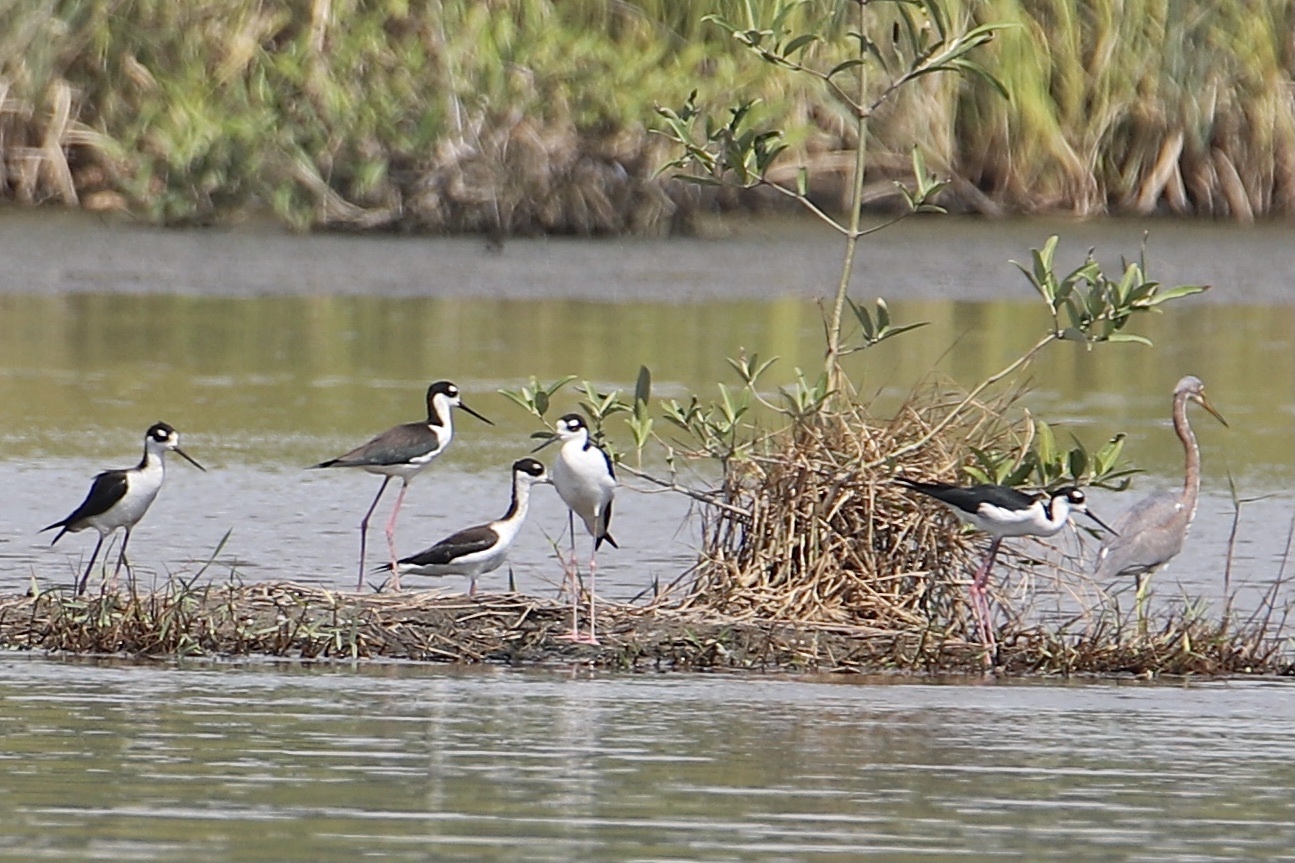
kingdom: Animalia
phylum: Chordata
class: Aves
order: Charadriiformes
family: Recurvirostridae
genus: Himantopus
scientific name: Himantopus mexicanus
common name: Black-necked stilt
